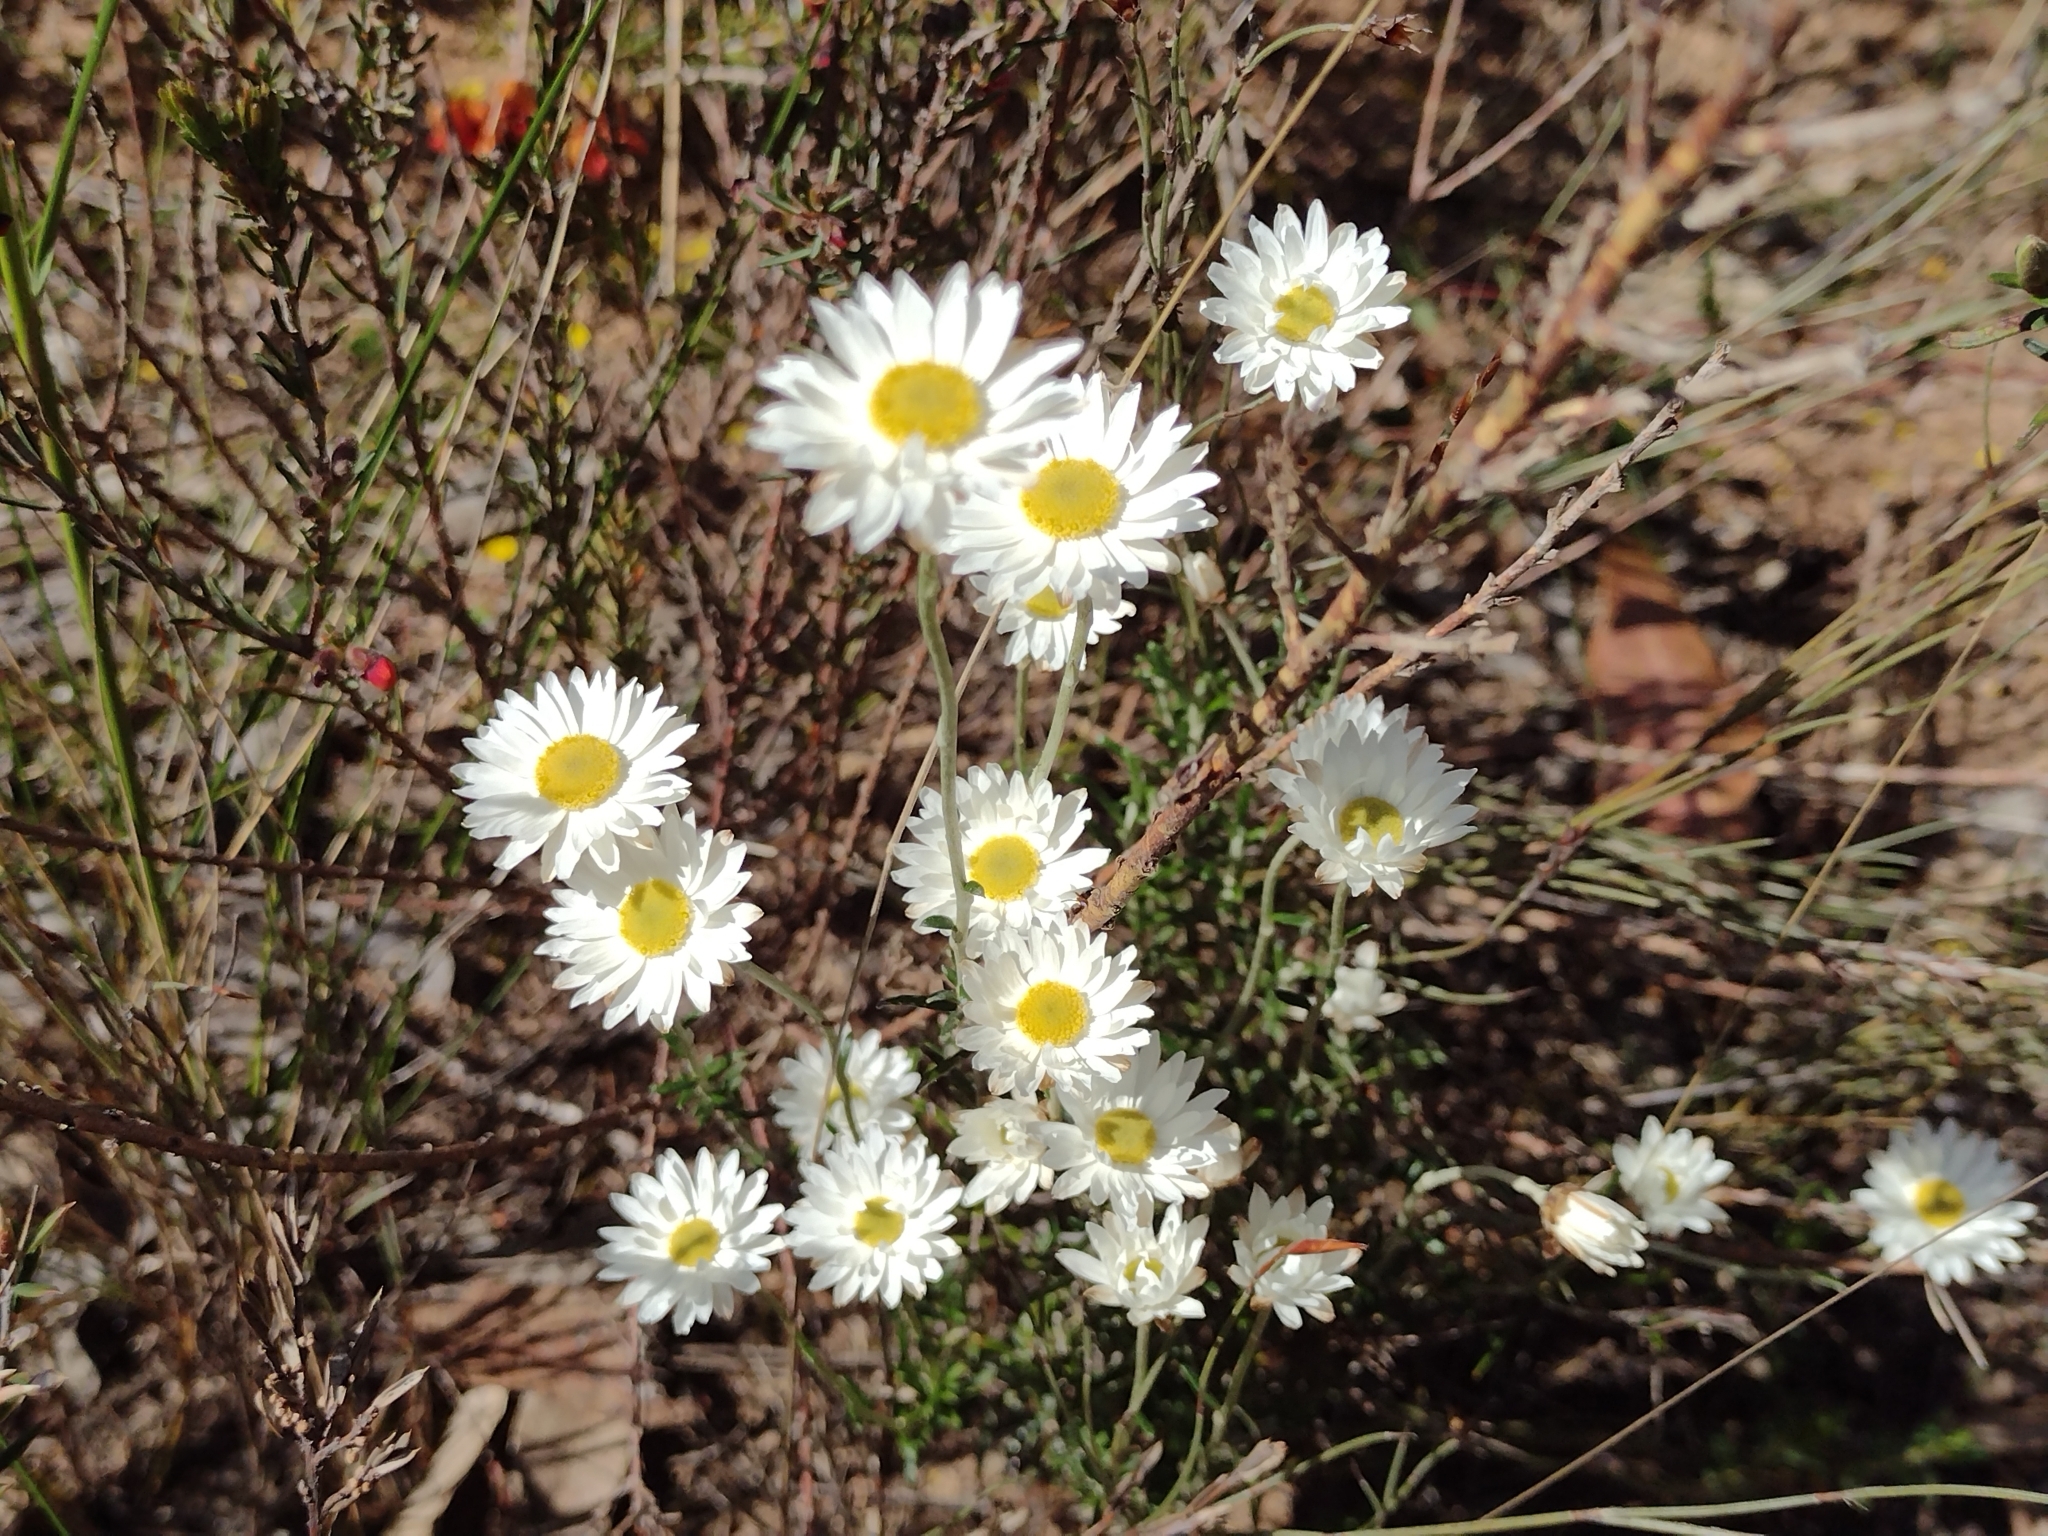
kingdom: Plantae
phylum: Tracheophyta
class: Magnoliopsida
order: Asterales
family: Asteraceae
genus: Argentipallium
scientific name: Argentipallium obtusifolium
